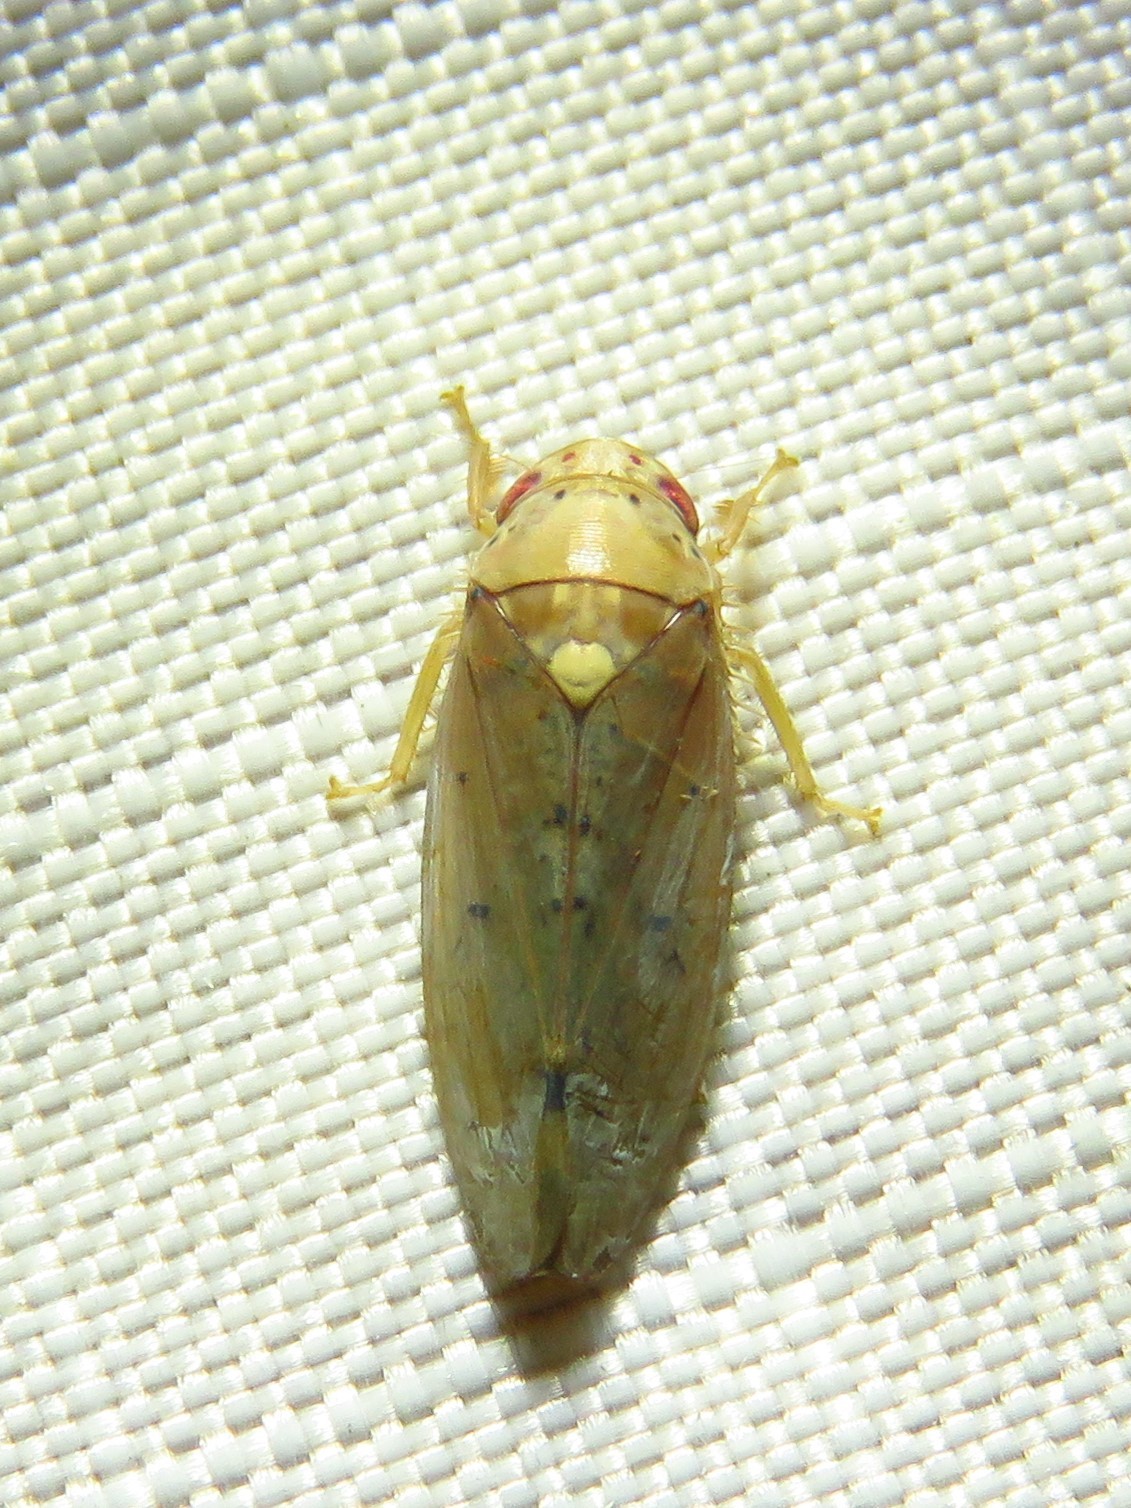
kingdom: Animalia
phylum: Arthropoda
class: Insecta
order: Hemiptera
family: Cicadellidae
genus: Ponana
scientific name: Ponana quadralaba
